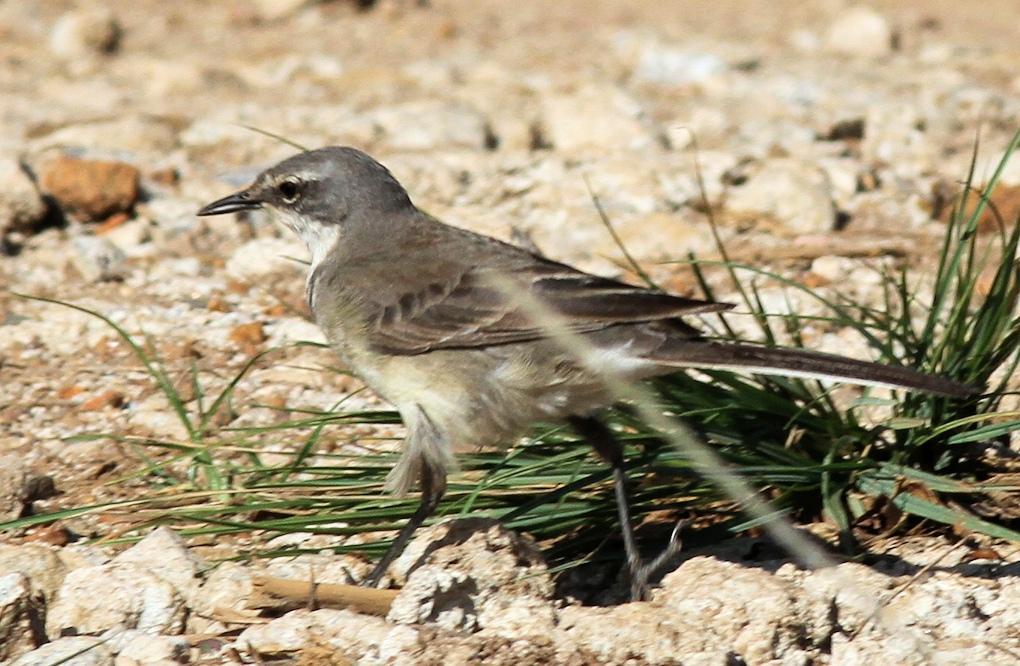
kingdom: Animalia
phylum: Chordata
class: Aves
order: Passeriformes
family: Motacillidae
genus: Motacilla
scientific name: Motacilla capensis
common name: Cape wagtail
